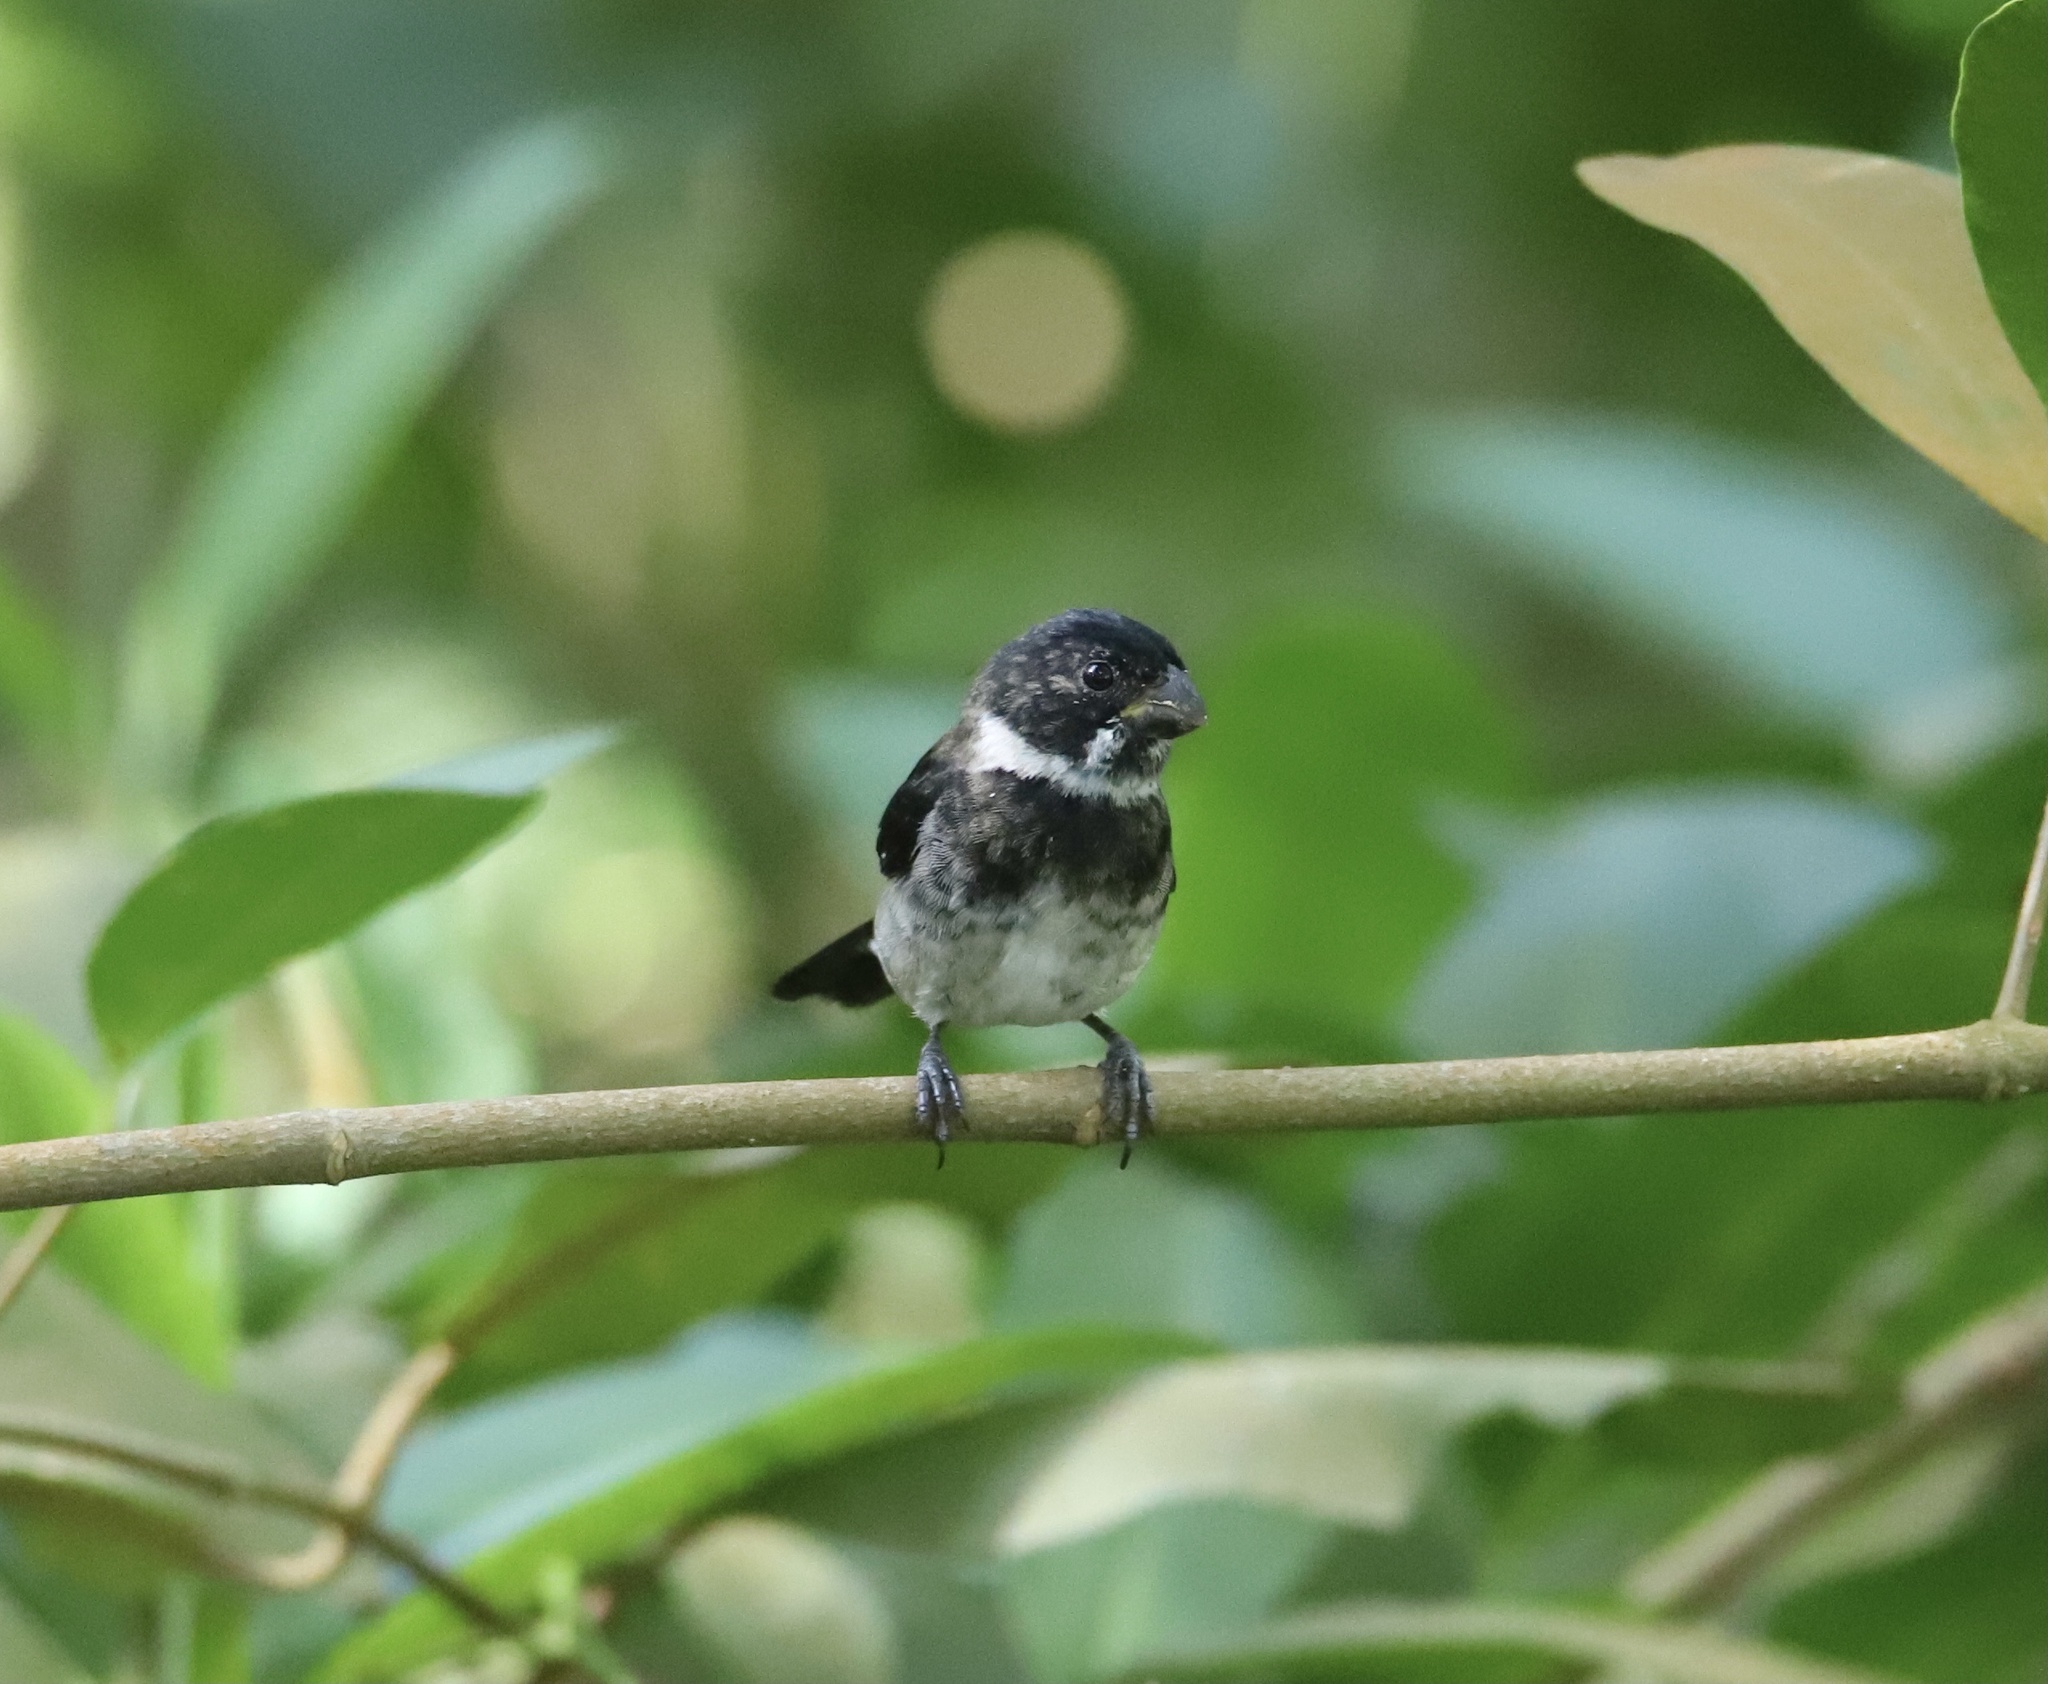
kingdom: Animalia
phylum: Chordata
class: Aves
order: Passeriformes
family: Thraupidae
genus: Sporophila
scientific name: Sporophila corvina
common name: Variable seedeater
